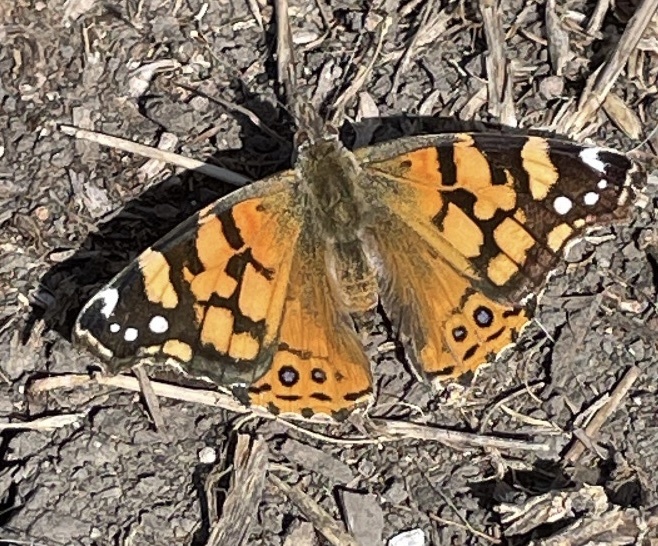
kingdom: Animalia
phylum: Arthropoda
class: Insecta
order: Lepidoptera
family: Nymphalidae
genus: Vanessa
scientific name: Vanessa annabella
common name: West coast lady
